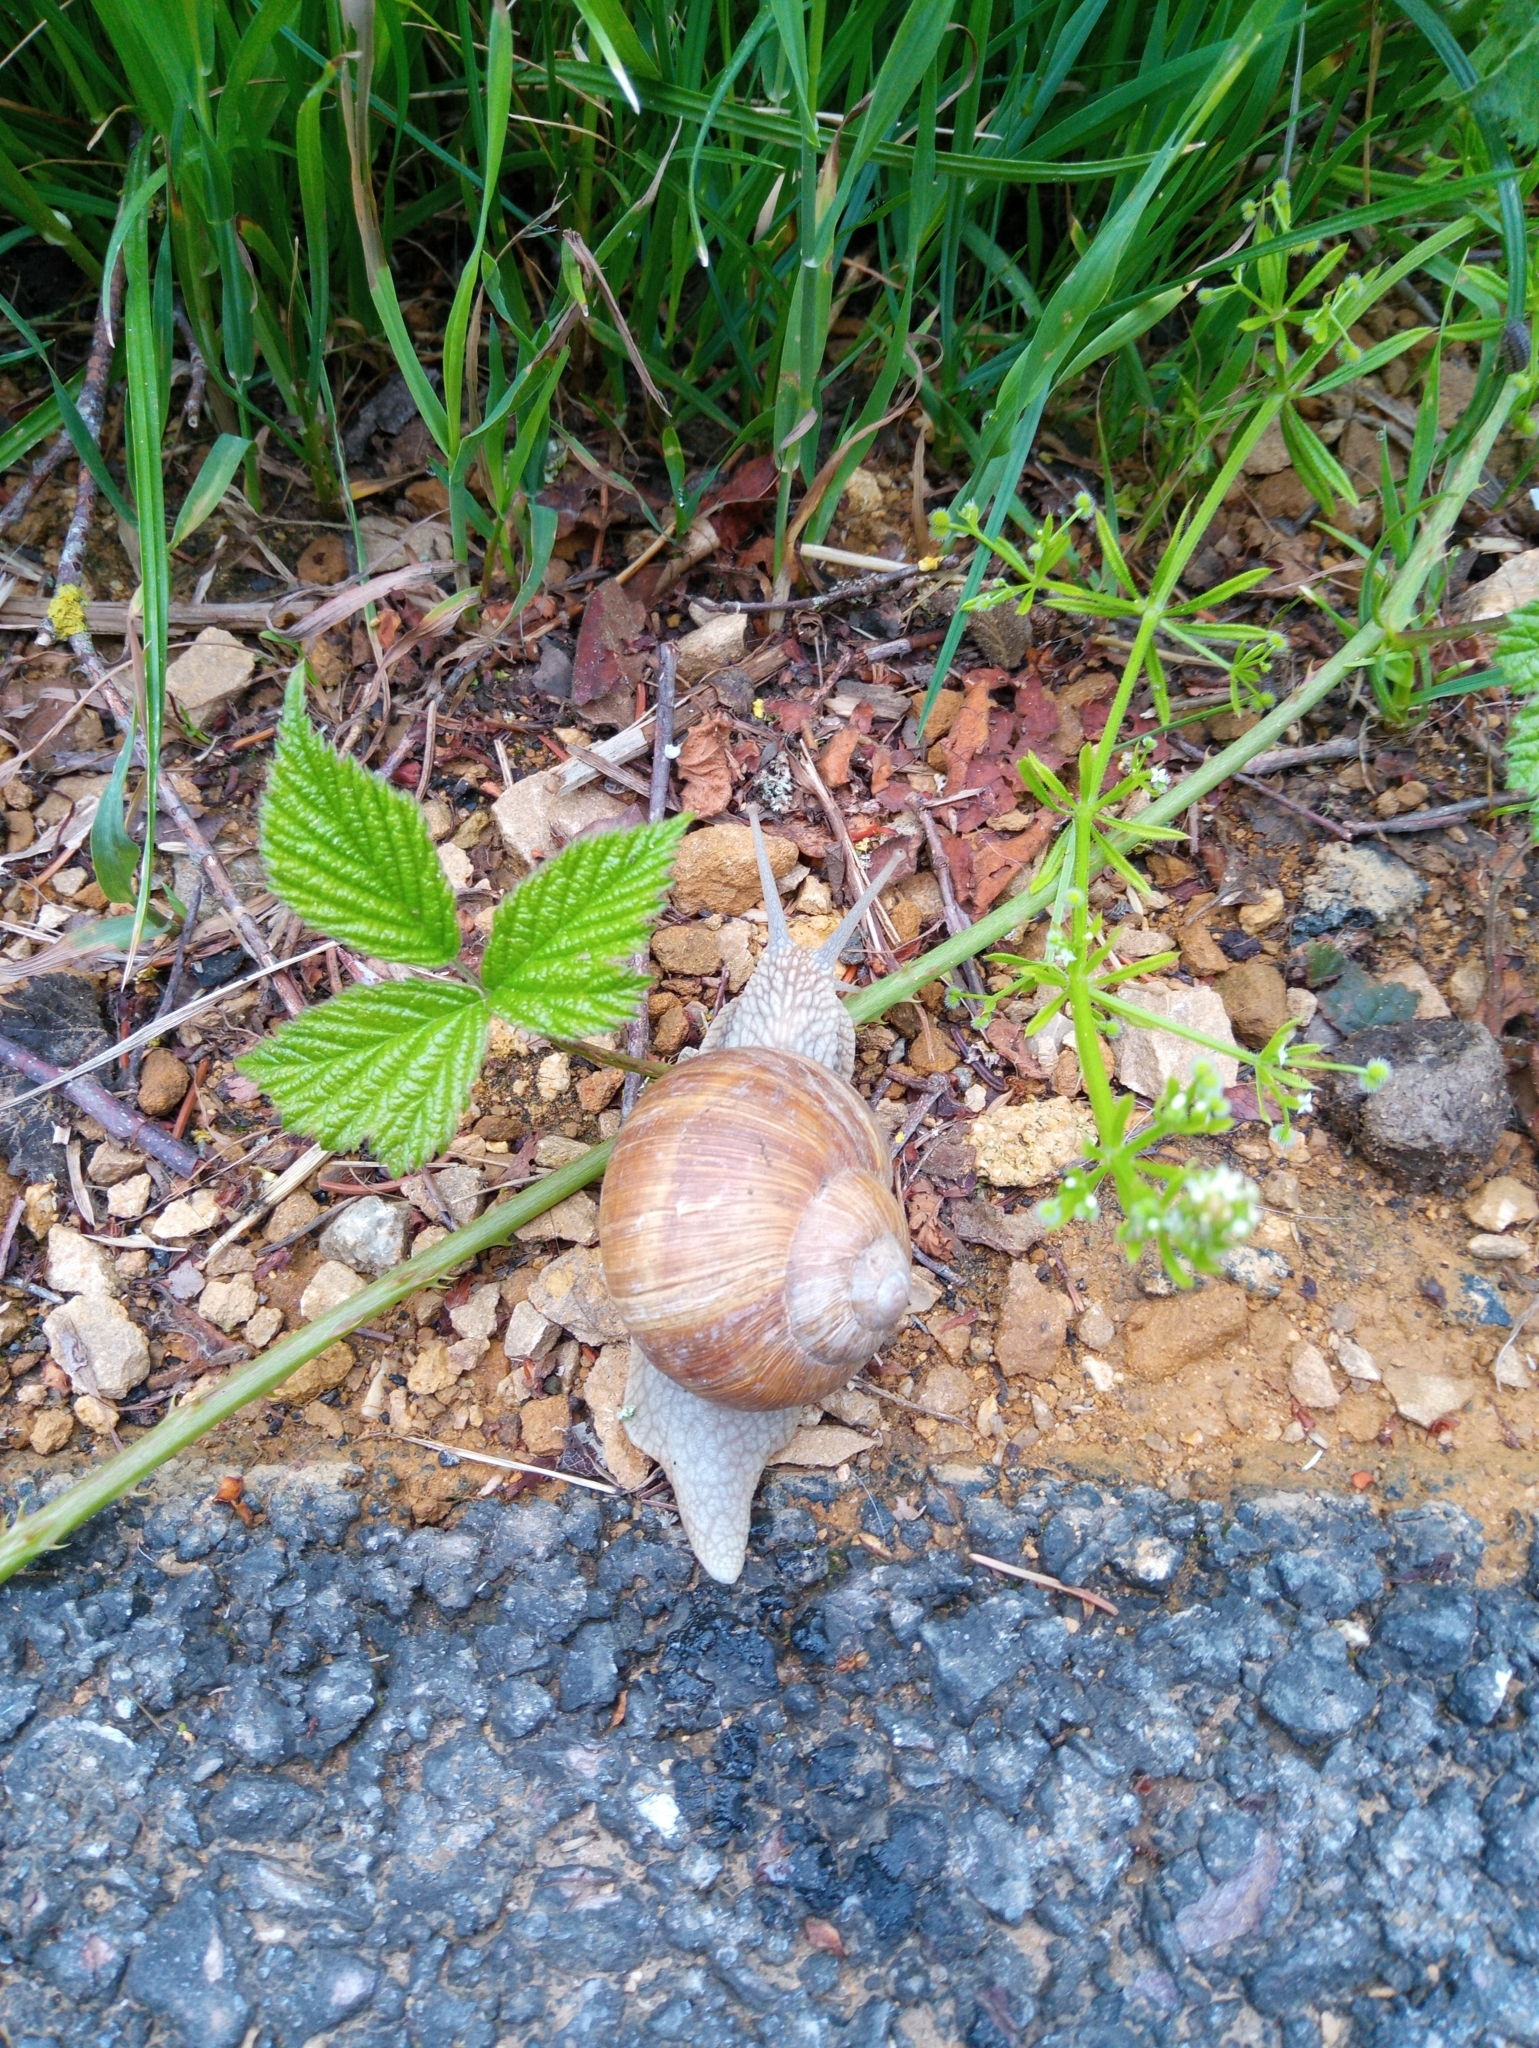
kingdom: Animalia
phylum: Mollusca
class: Gastropoda
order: Stylommatophora
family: Helicidae
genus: Helix
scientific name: Helix pomatia
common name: Roman snail
